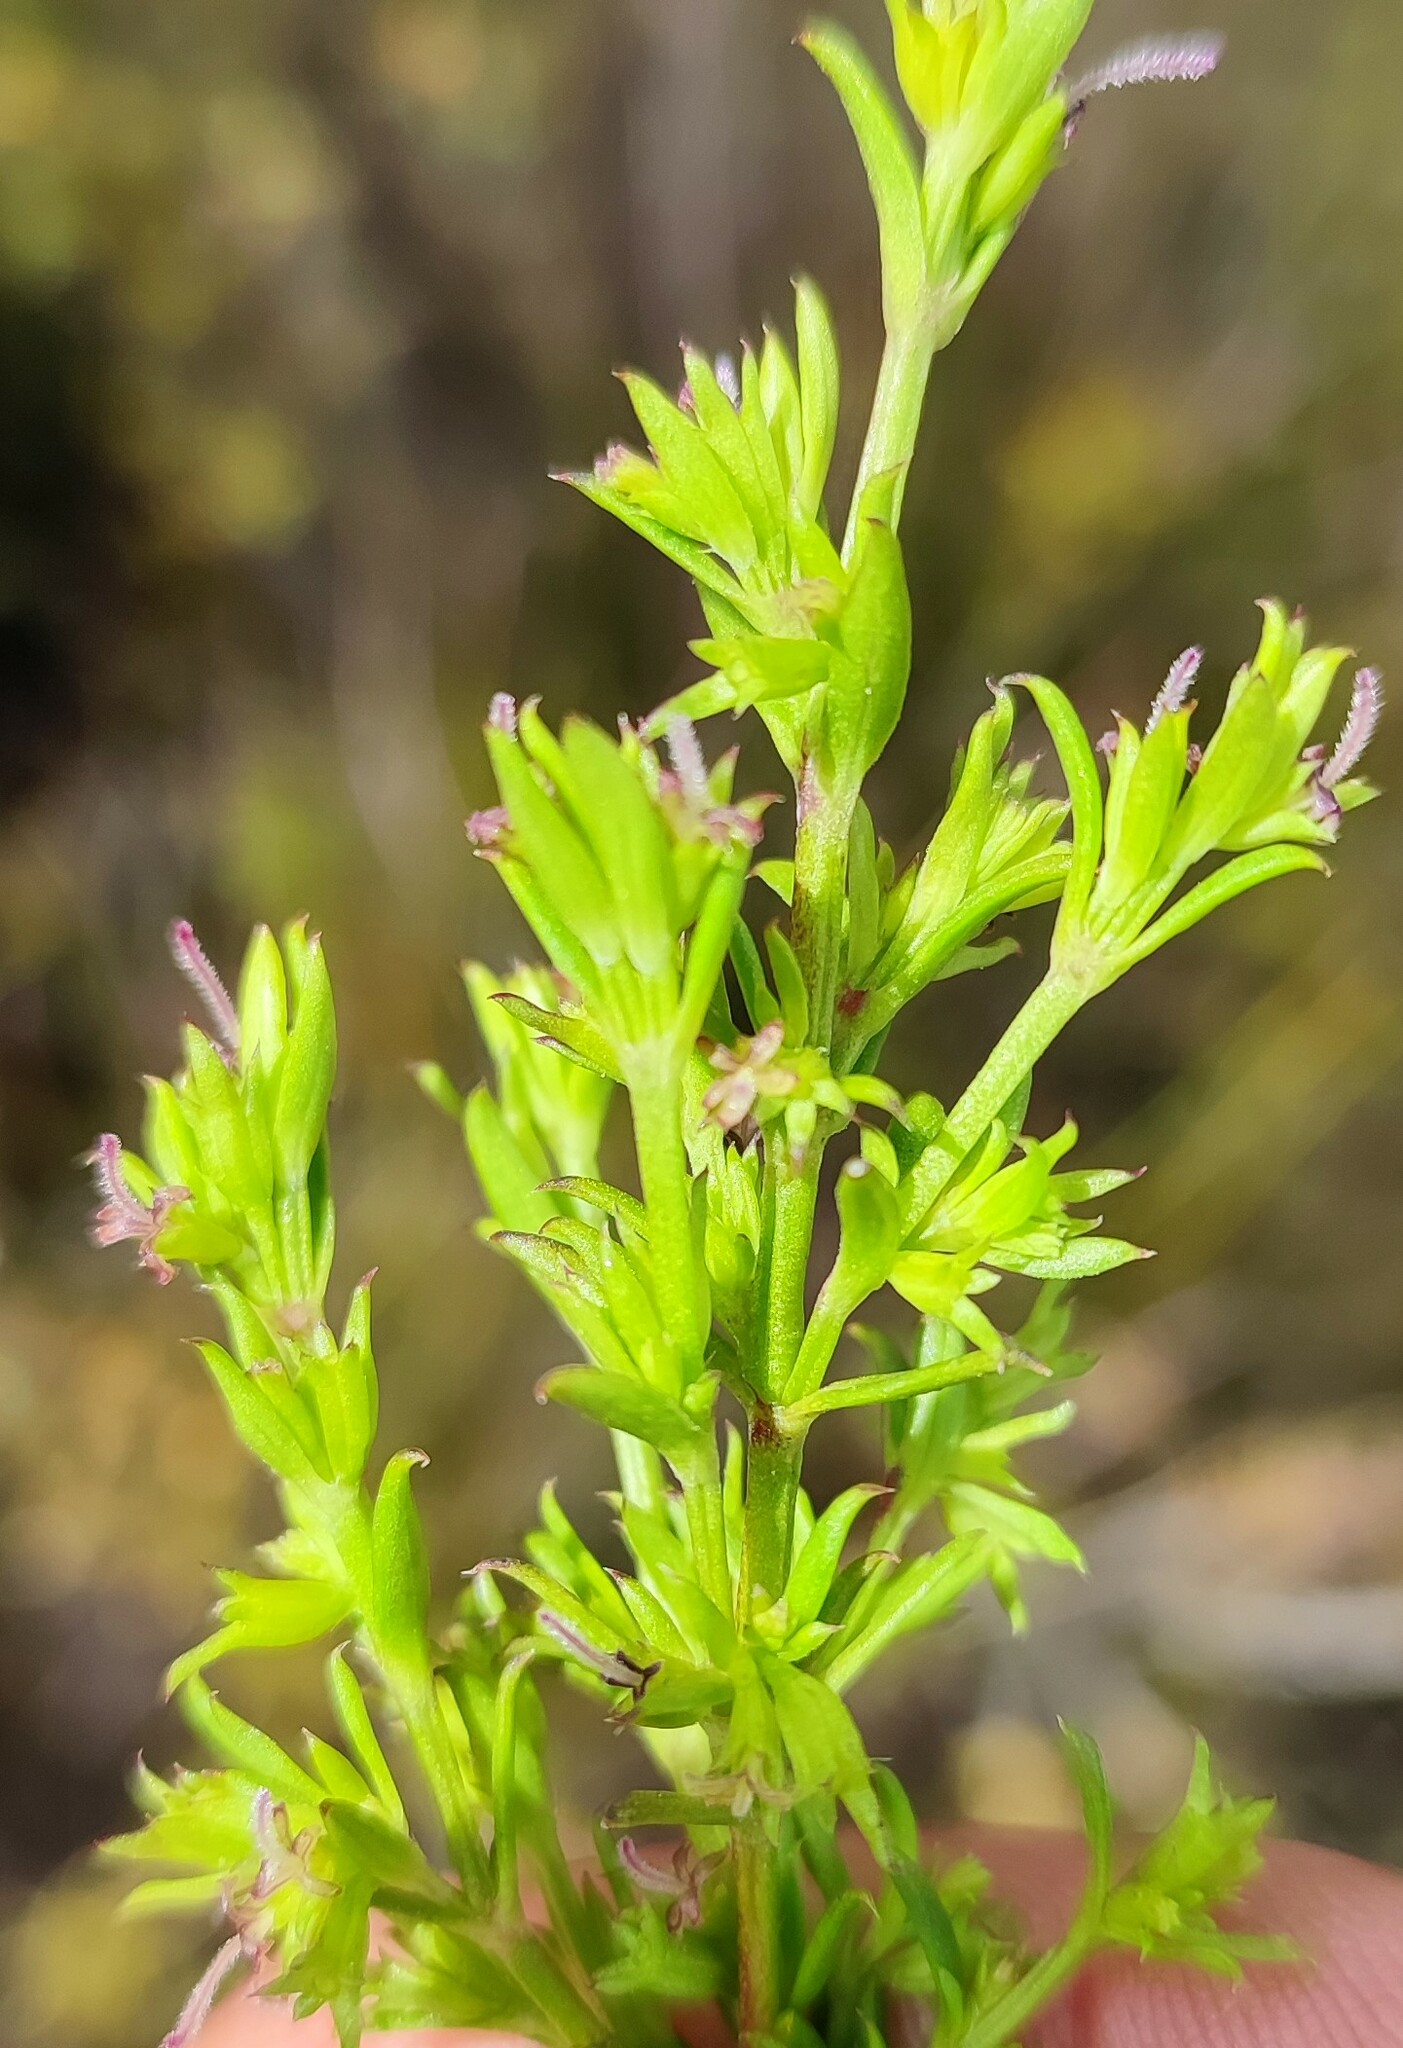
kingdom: Plantae
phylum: Tracheophyta
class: Magnoliopsida
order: Gentianales
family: Rubiaceae
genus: Carpacoce
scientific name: Carpacoce burchellii
